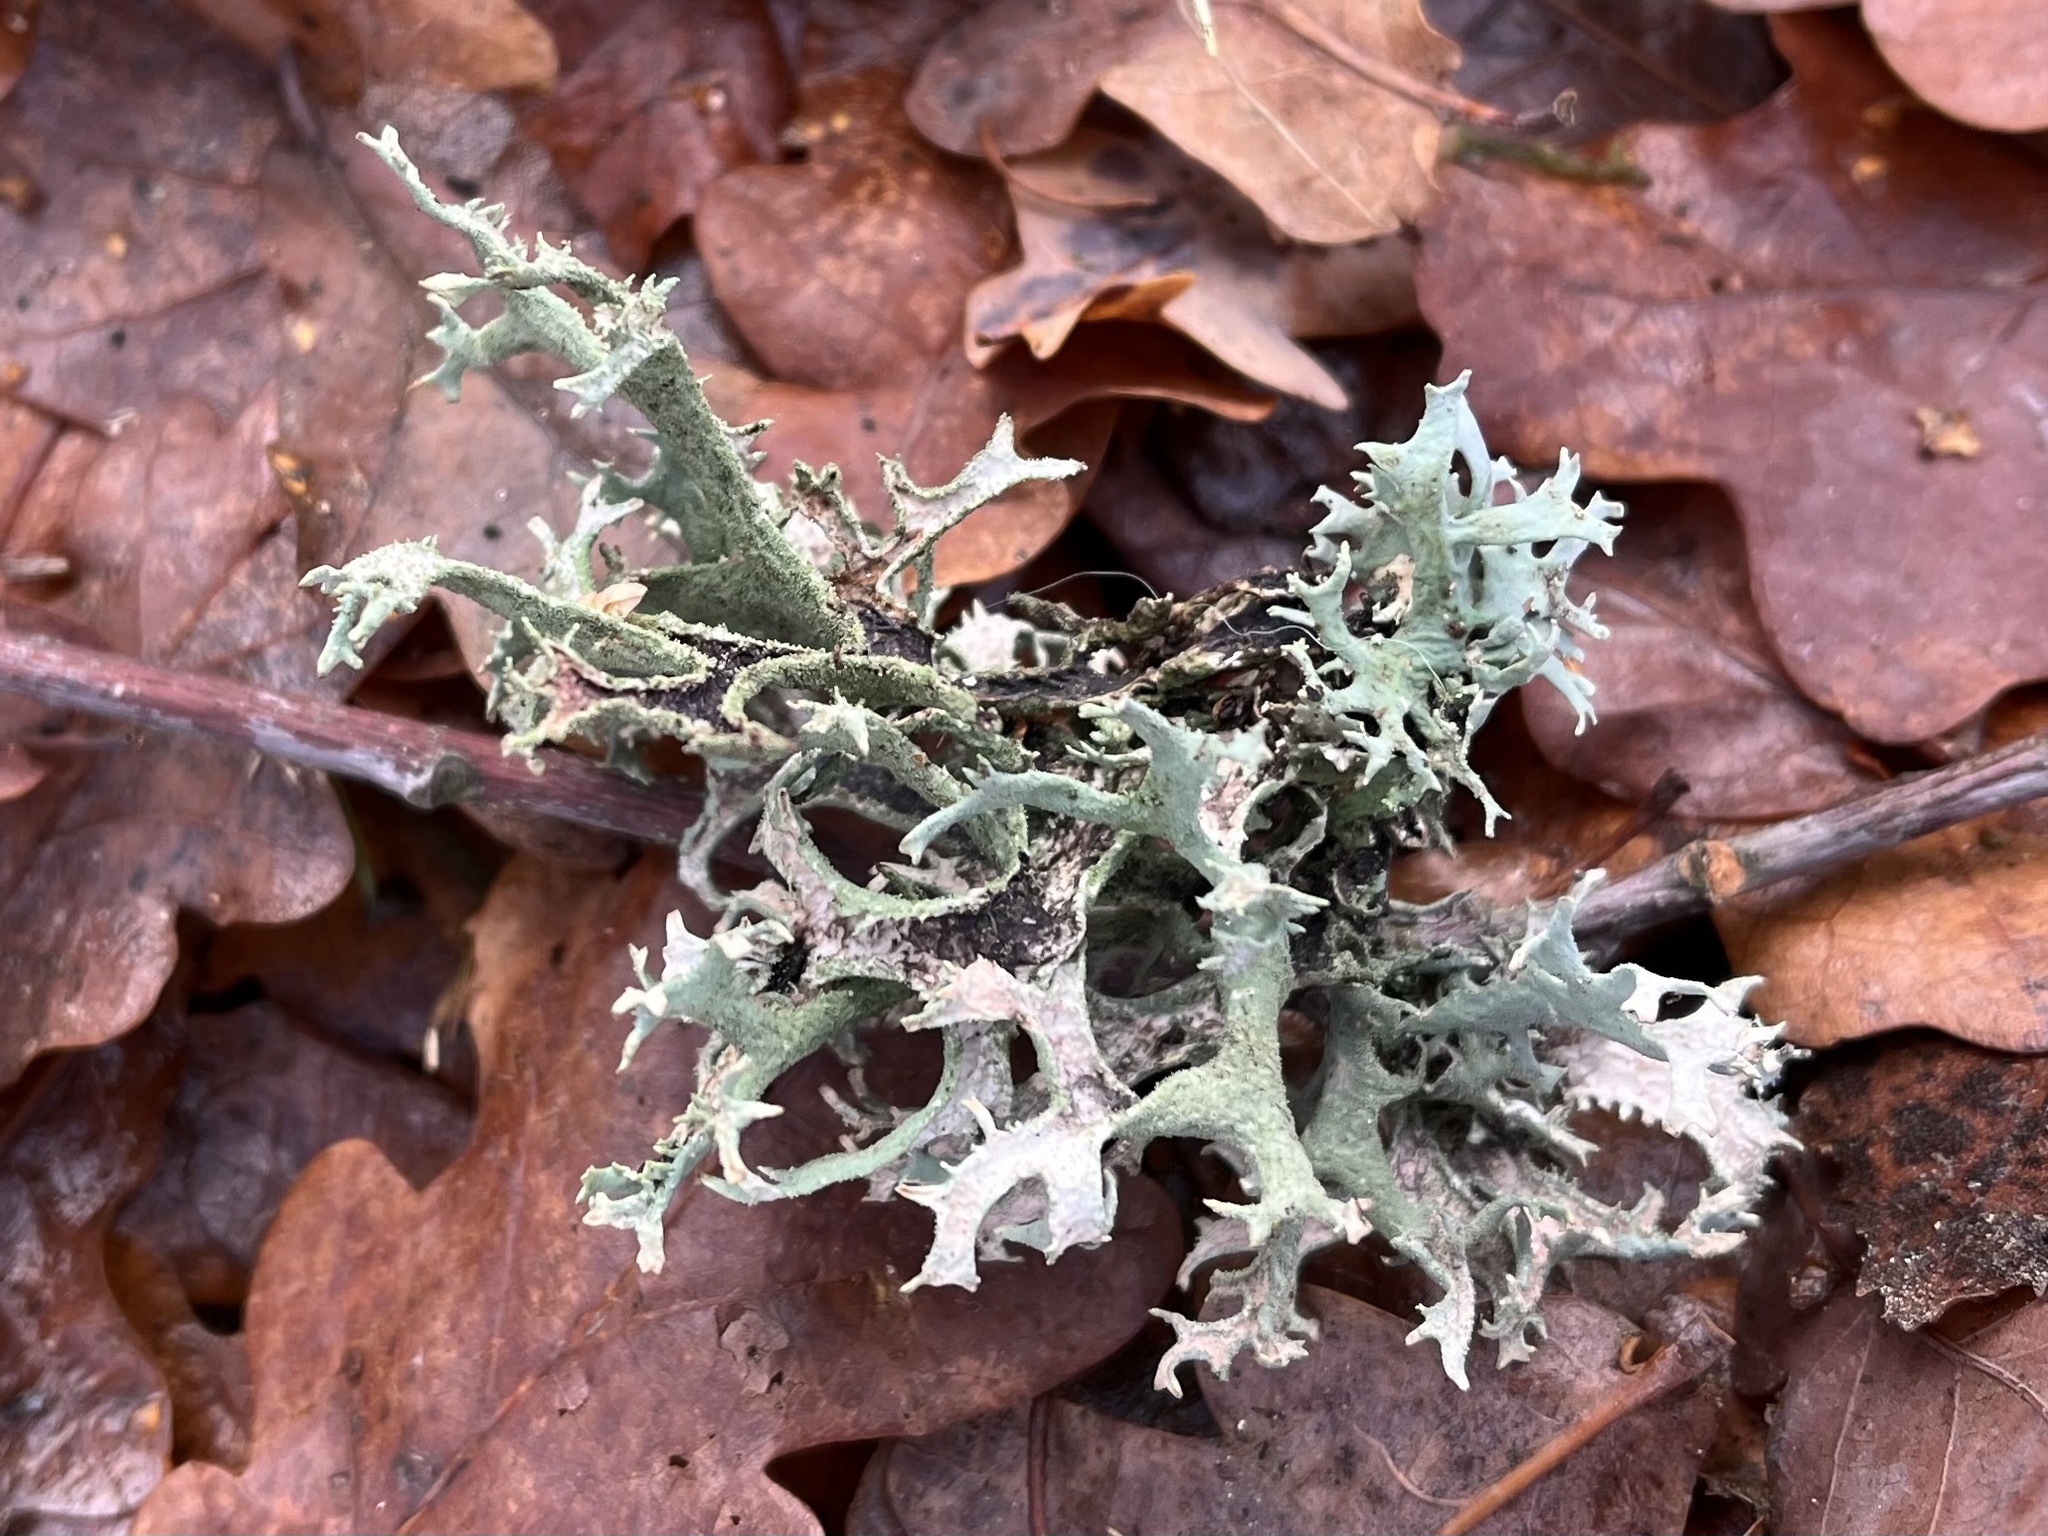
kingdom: Fungi
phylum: Ascomycota
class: Lecanoromycetes
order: Lecanorales
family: Parmeliaceae
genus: Pseudevernia
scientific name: Pseudevernia furfuracea
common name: Tree moss
